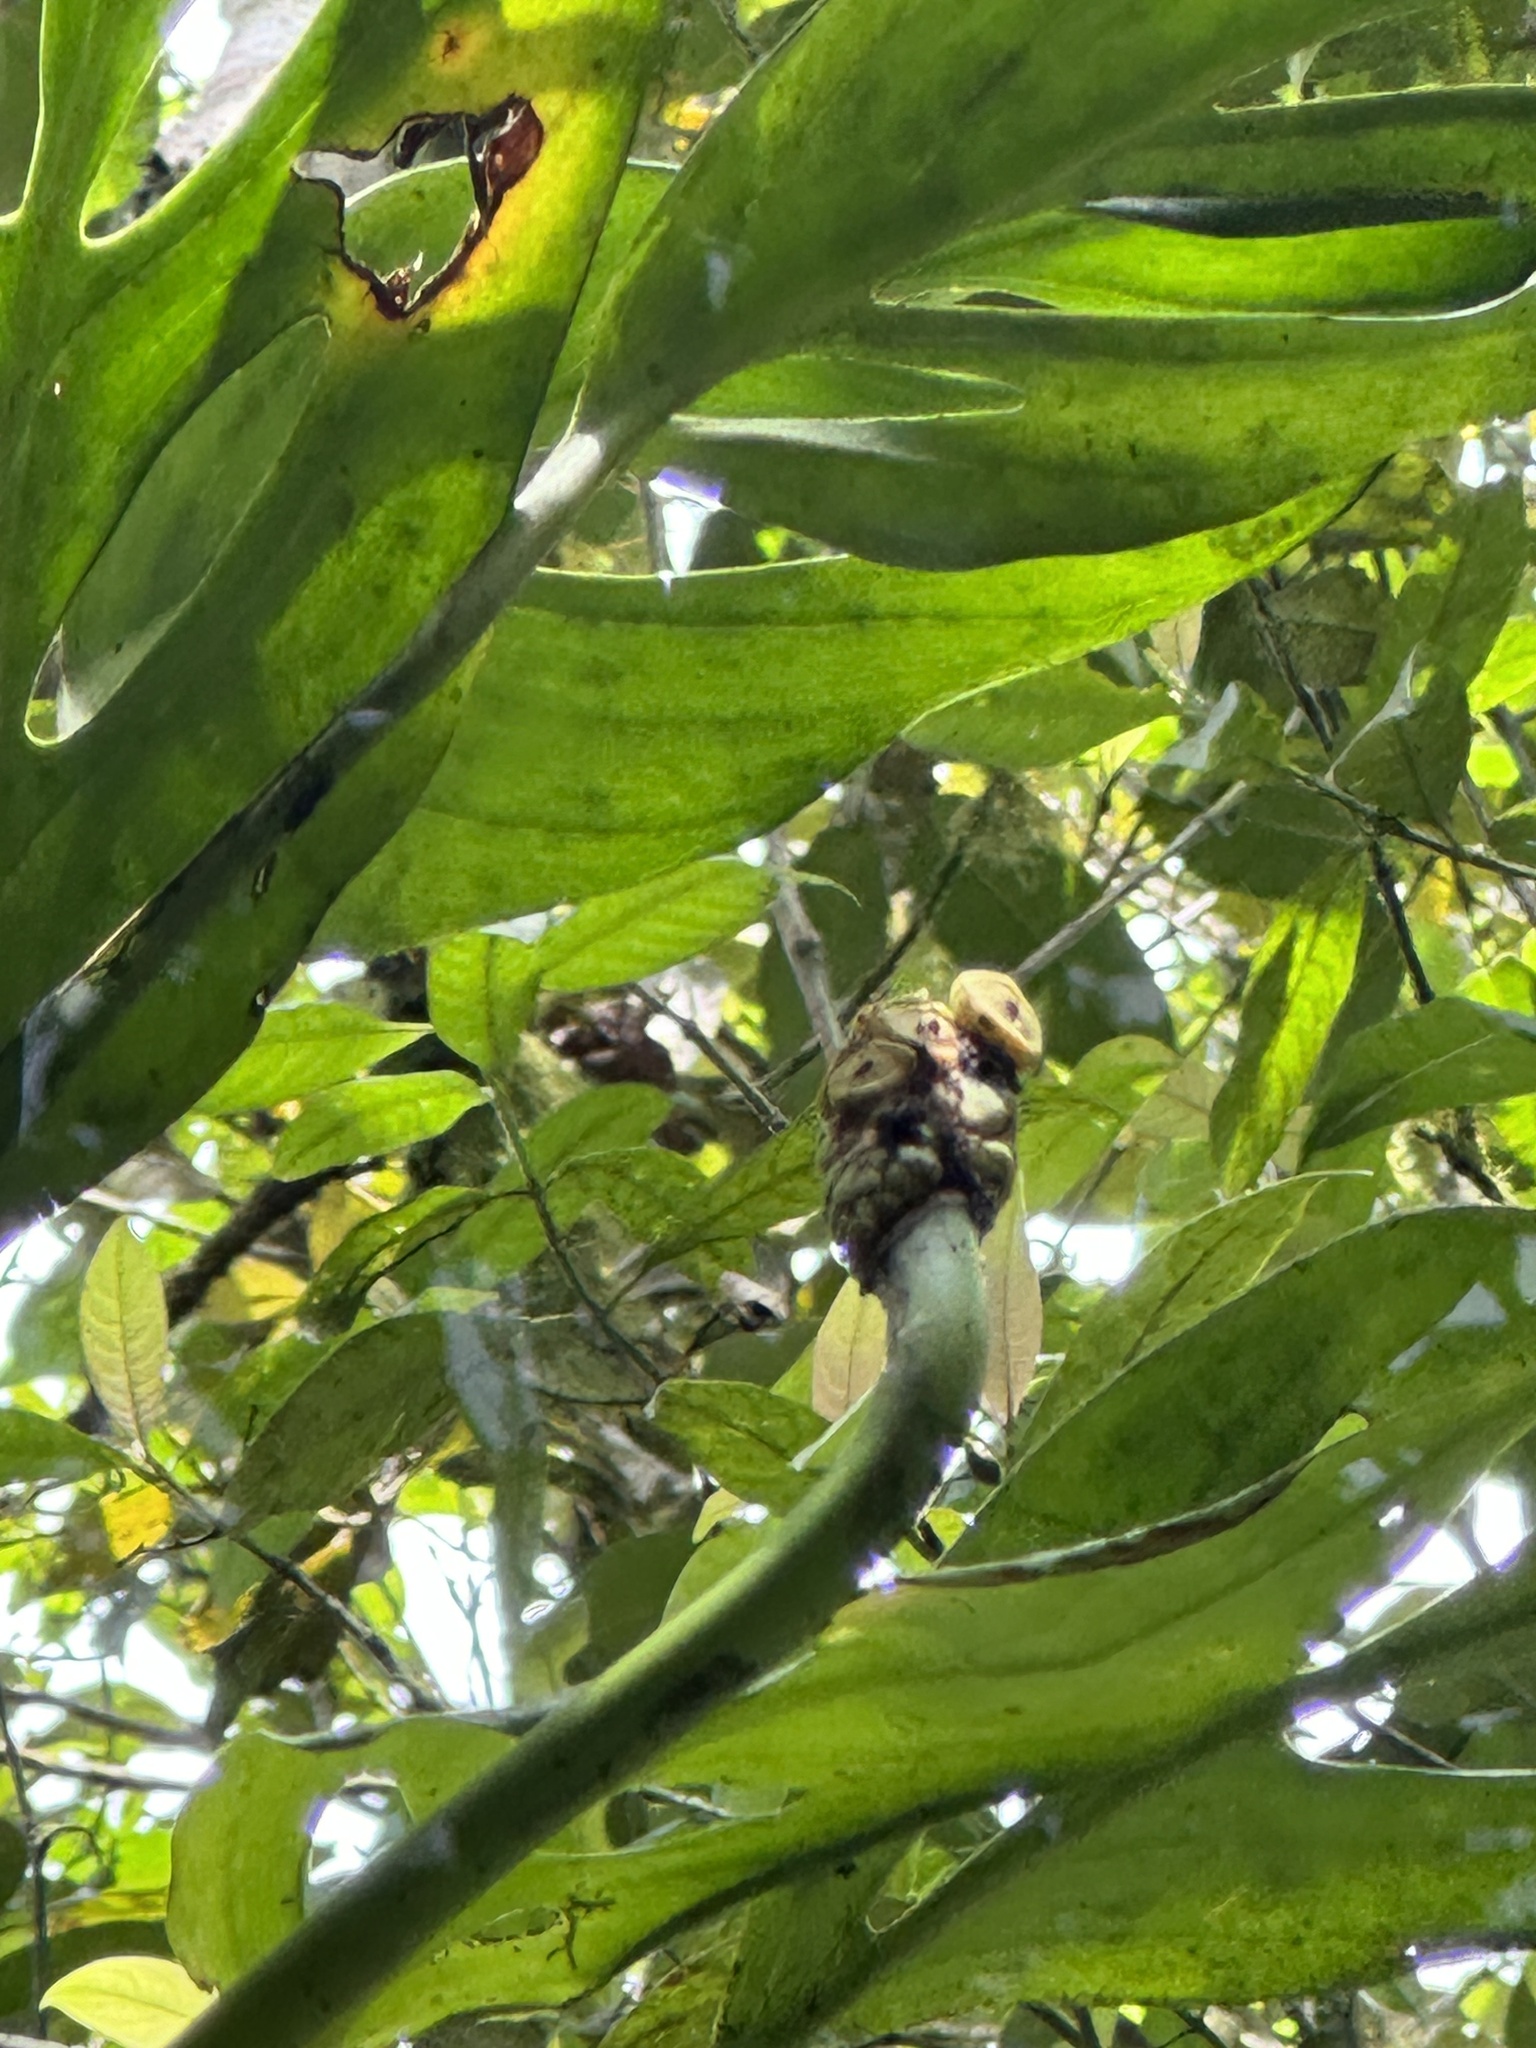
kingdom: Plantae
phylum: Tracheophyta
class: Liliopsida
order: Alismatales
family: Araceae
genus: Monstera
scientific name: Monstera xanthospatha
